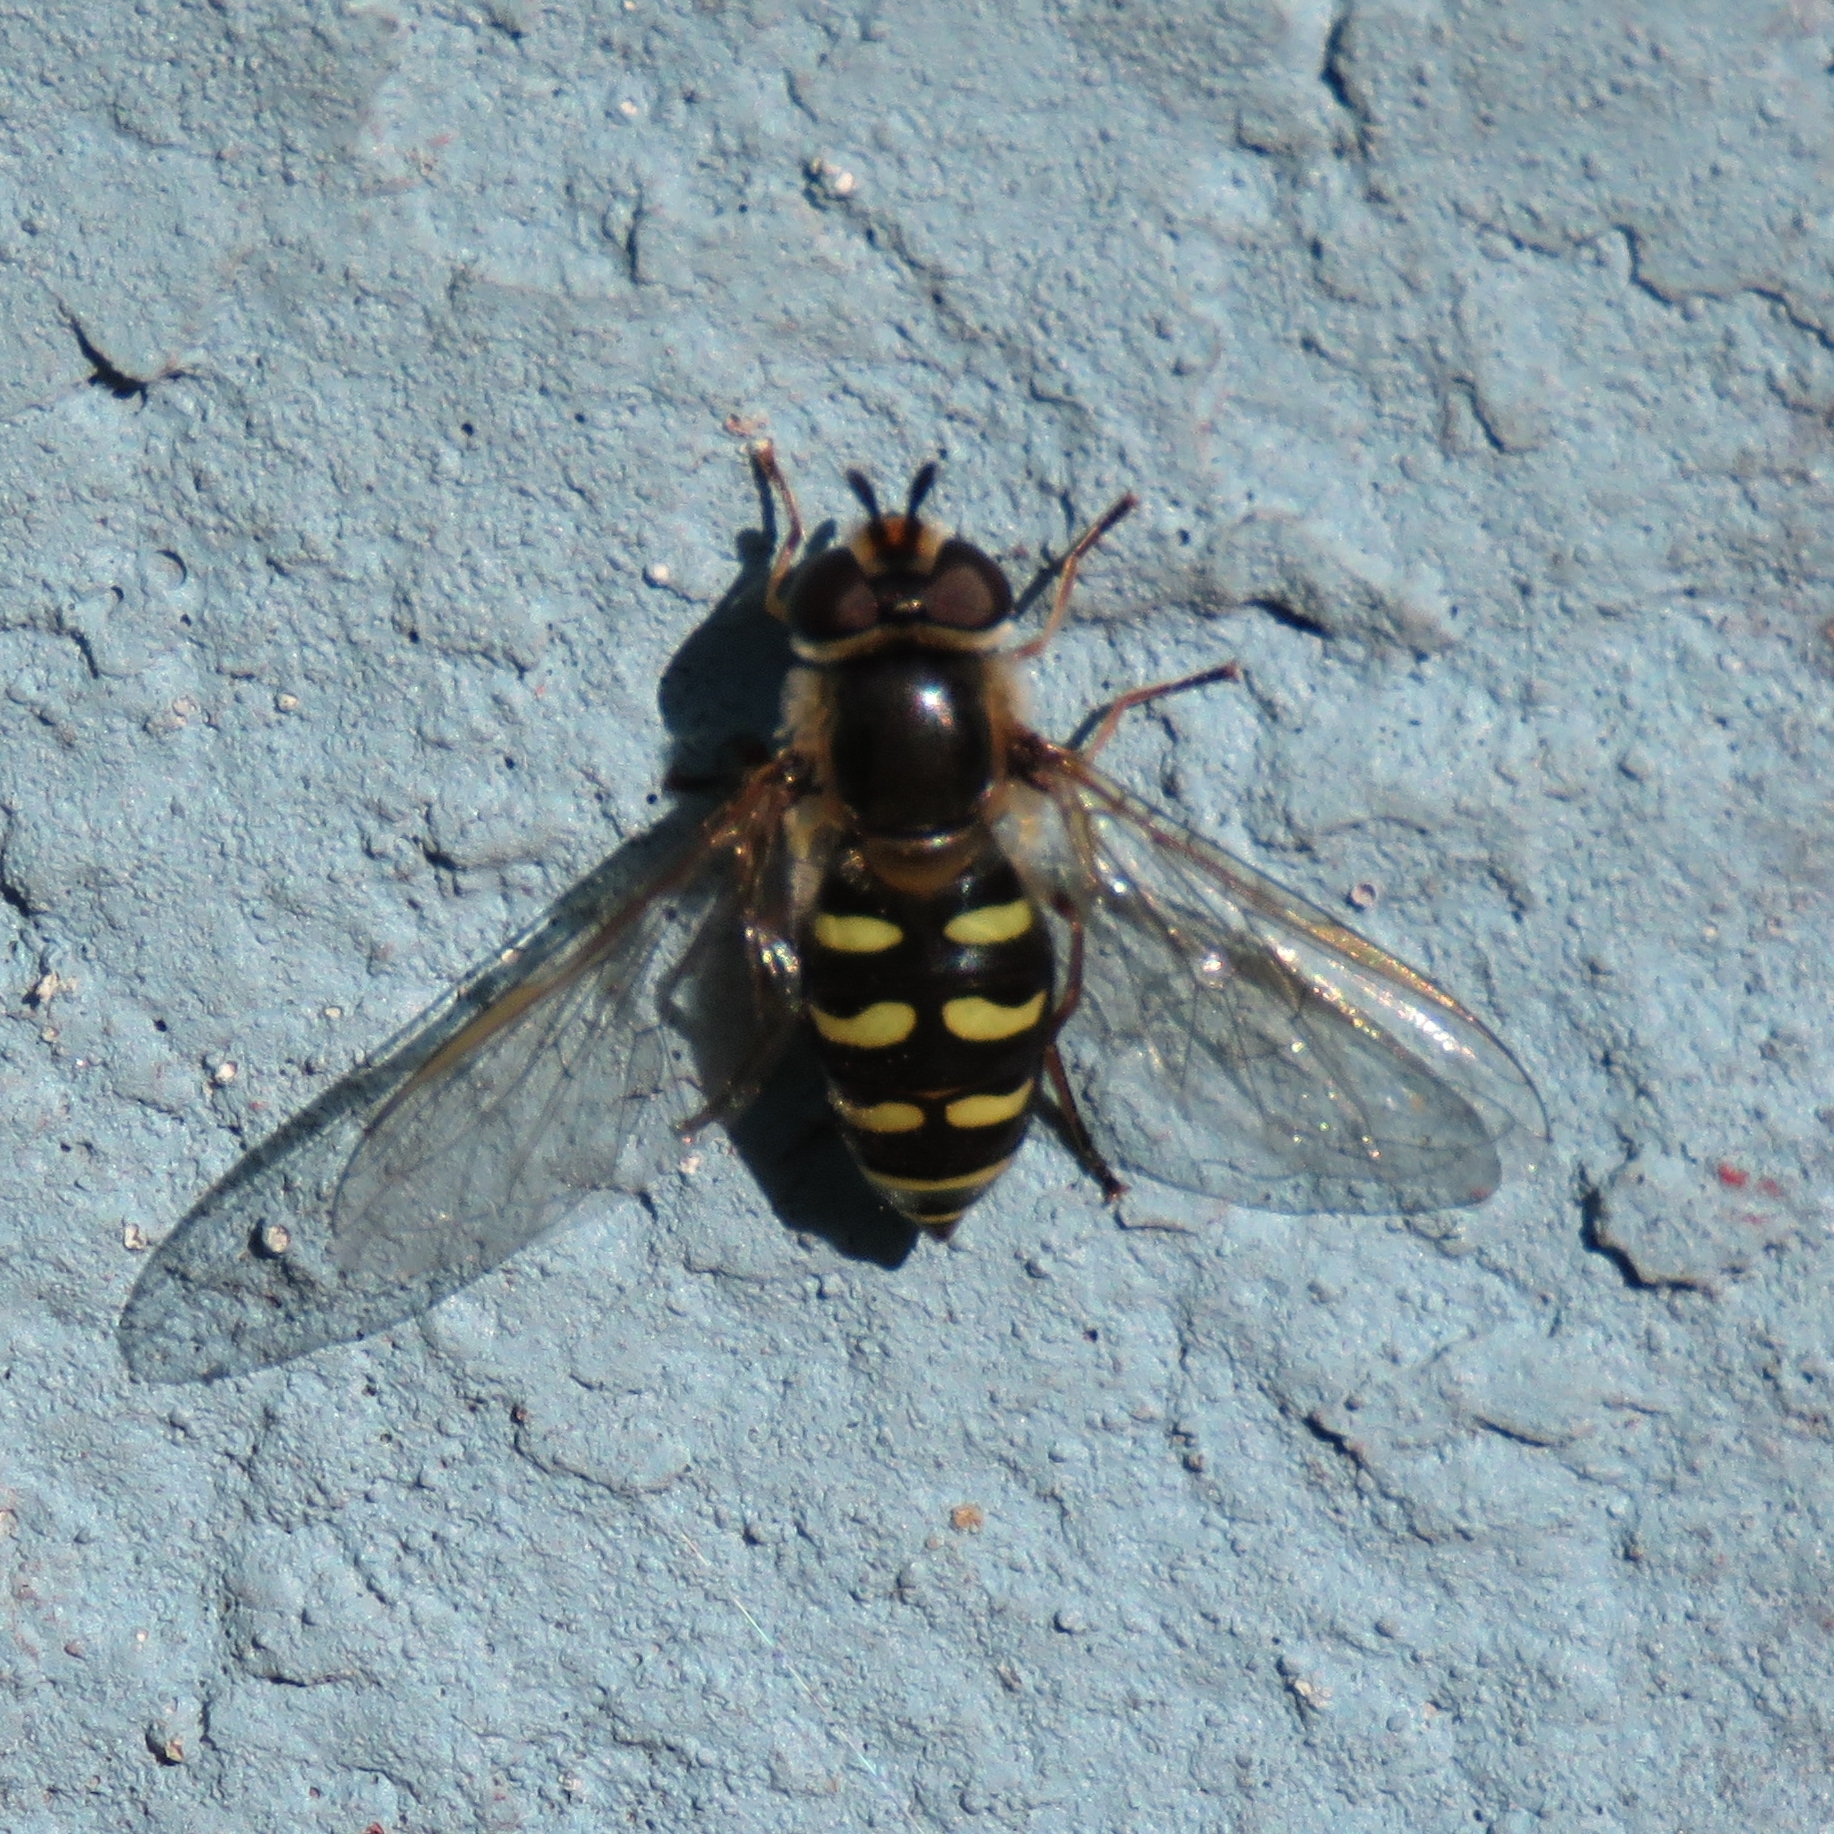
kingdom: Animalia
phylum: Arthropoda
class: Insecta
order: Diptera
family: Syrphidae
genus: Eupeodes
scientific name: Eupeodes
